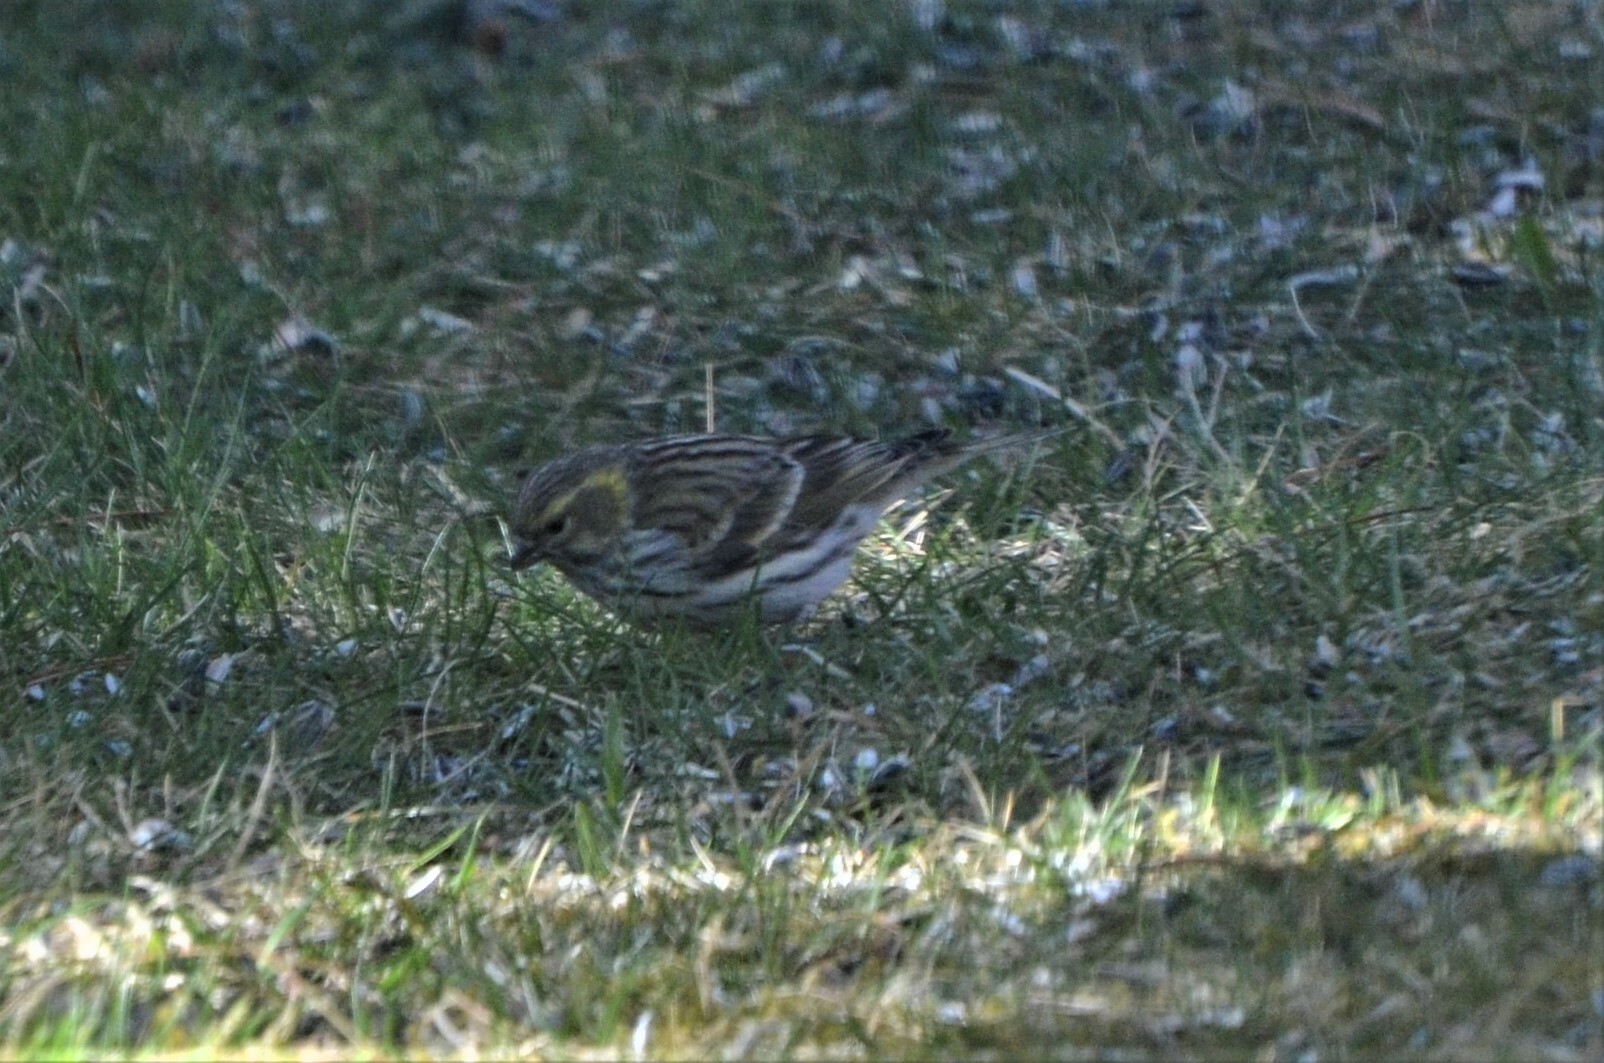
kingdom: Animalia
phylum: Chordata
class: Aves
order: Passeriformes
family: Fringillidae
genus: Serinus
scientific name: Serinus serinus
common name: European serin
